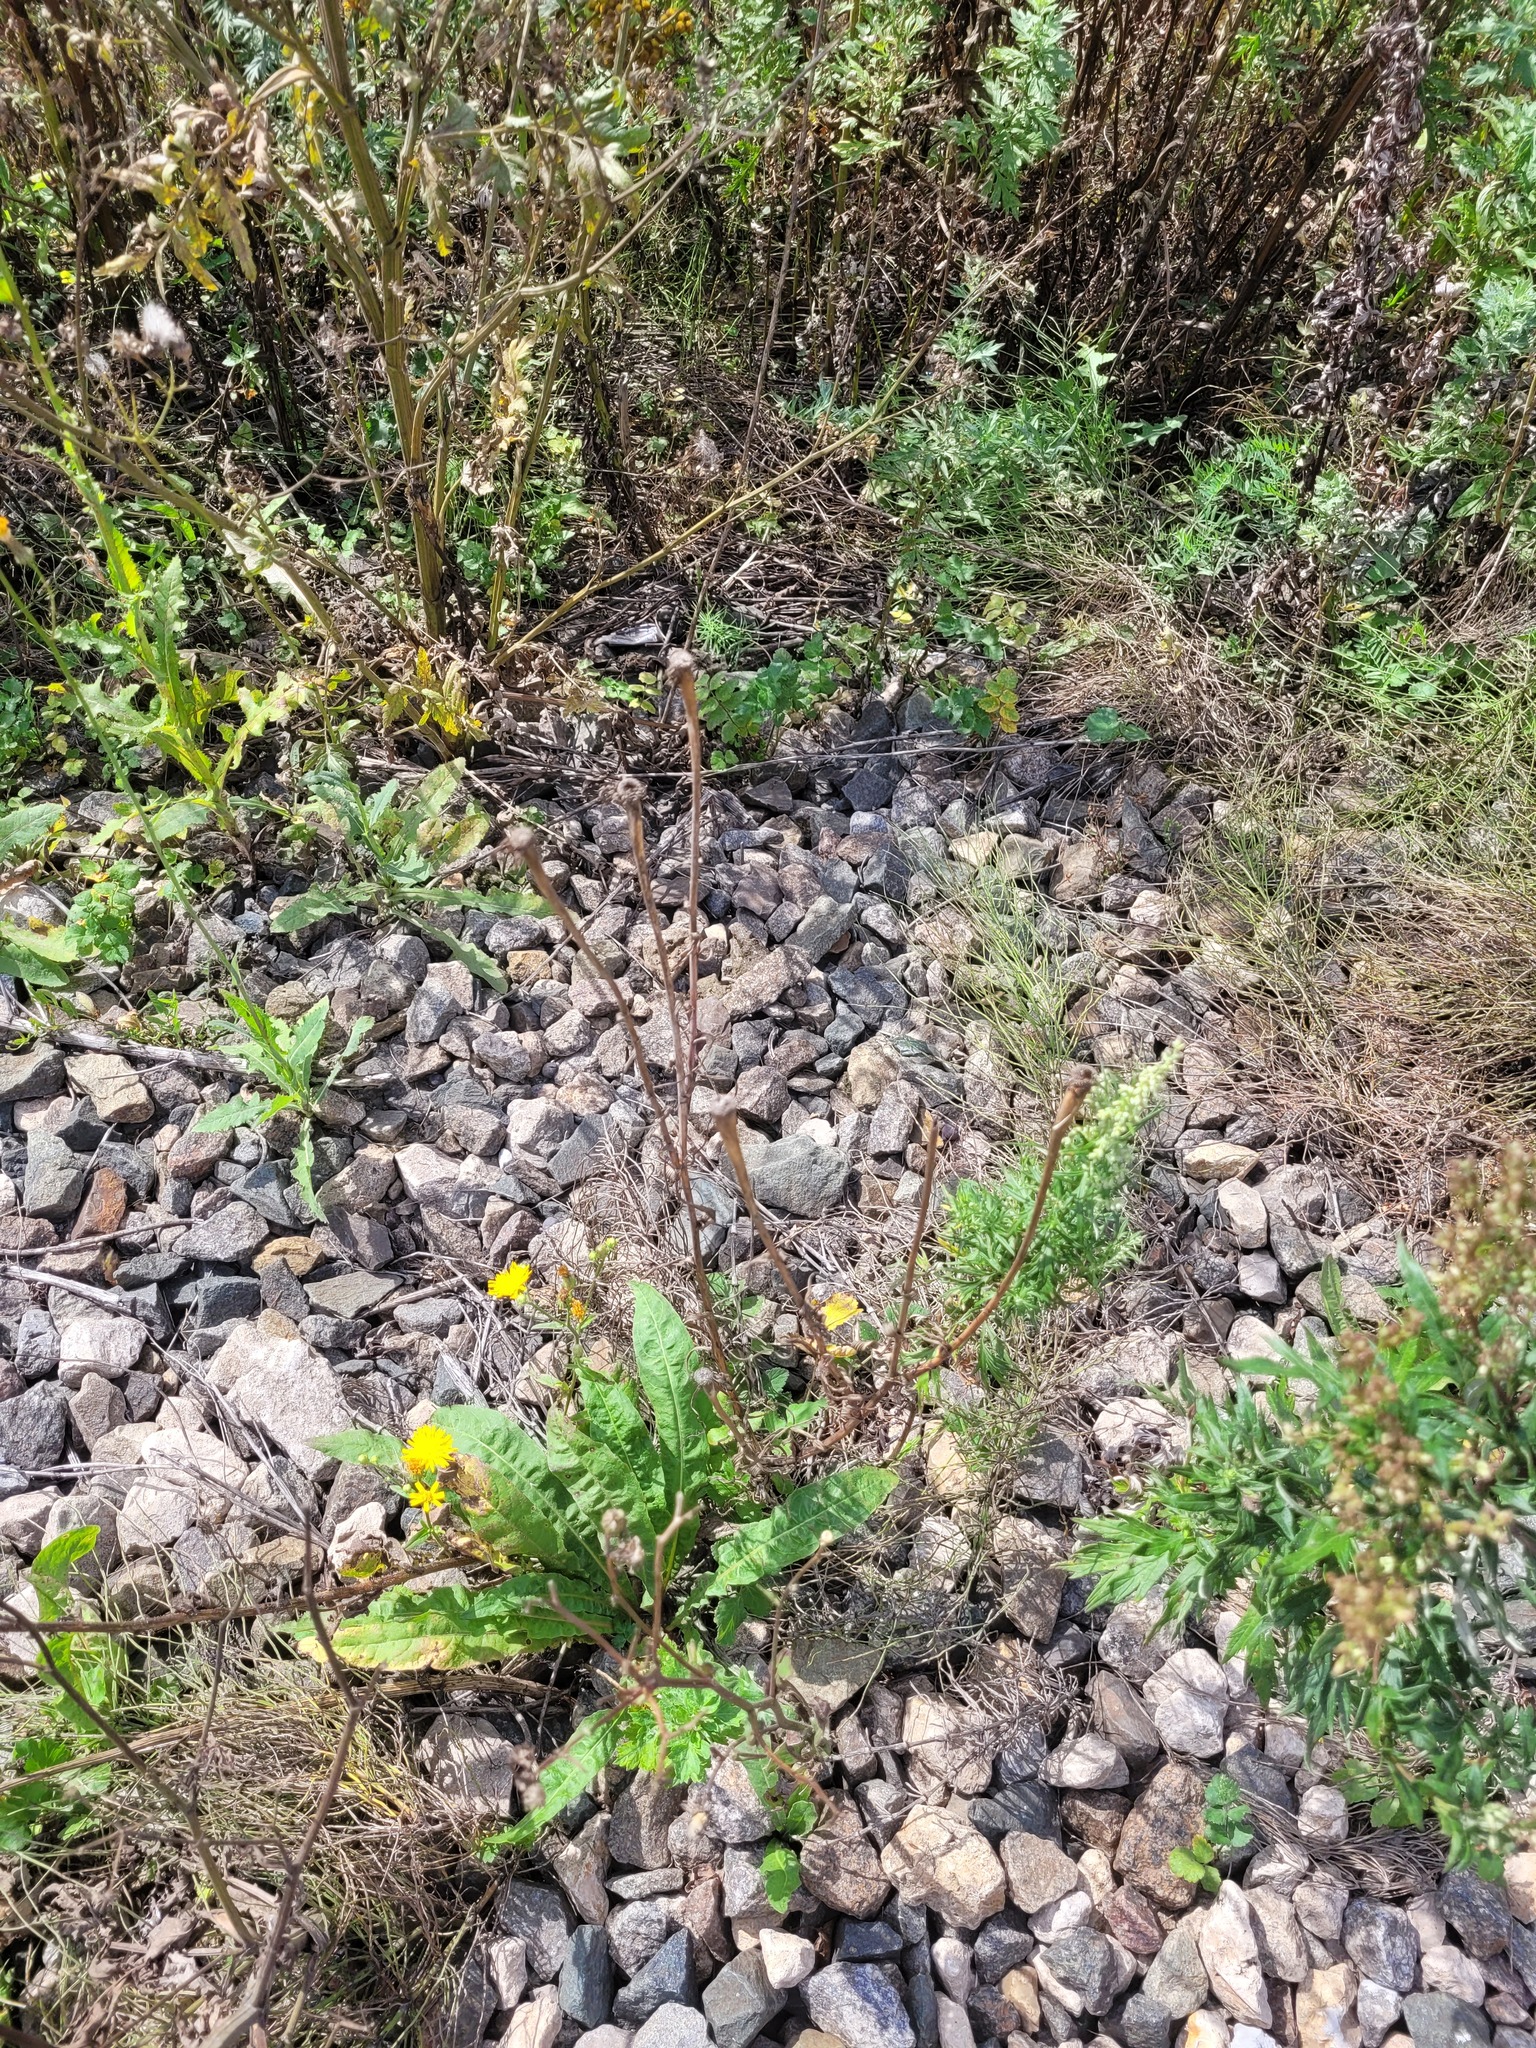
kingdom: Plantae
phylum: Tracheophyta
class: Magnoliopsida
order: Asterales
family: Asteraceae
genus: Tragopogon
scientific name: Tragopogon dubius
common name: Yellow salsify
